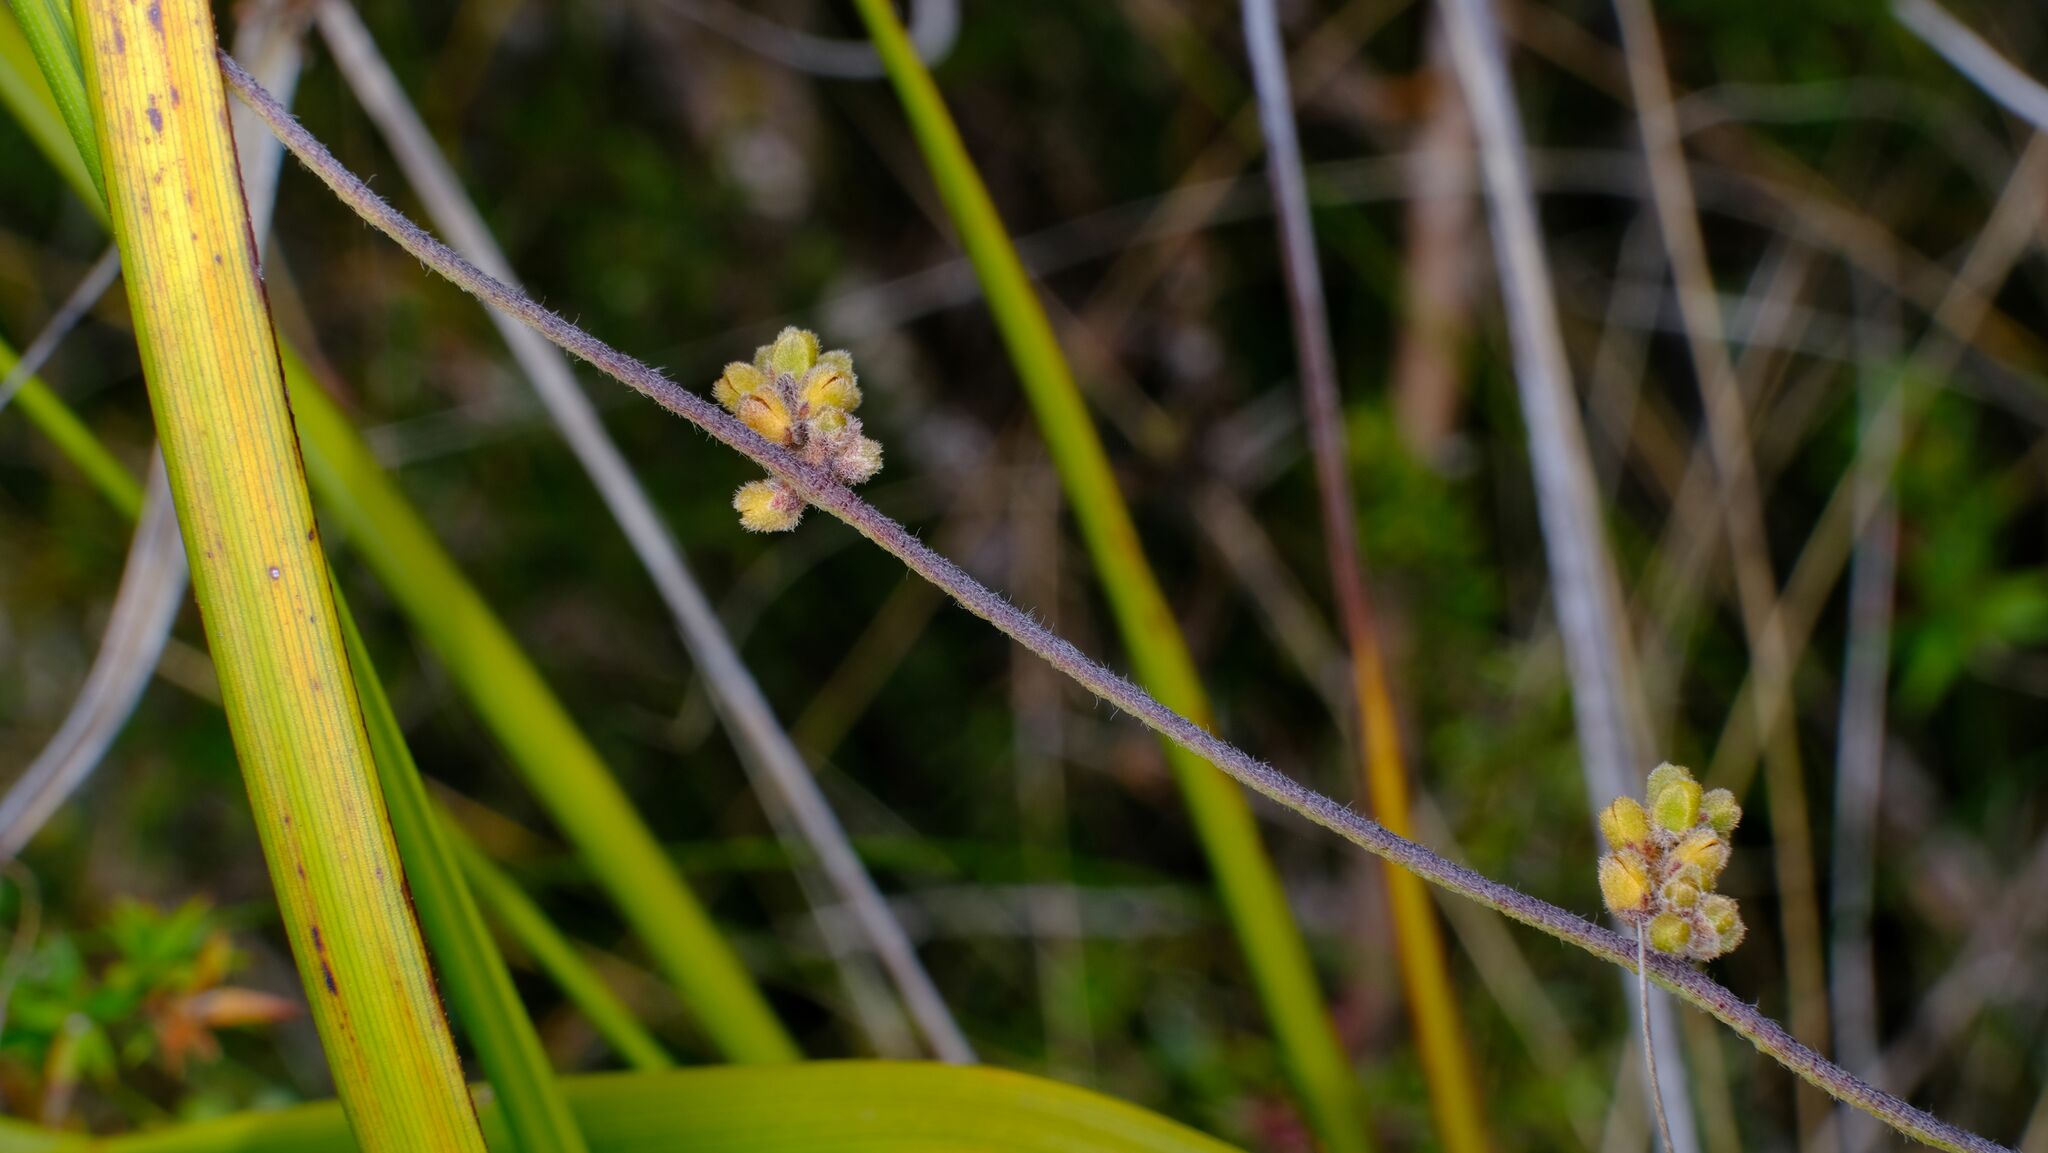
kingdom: Plantae
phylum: Tracheophyta
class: Magnoliopsida
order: Laurales
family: Lauraceae
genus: Cassytha
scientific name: Cassytha pubescens
